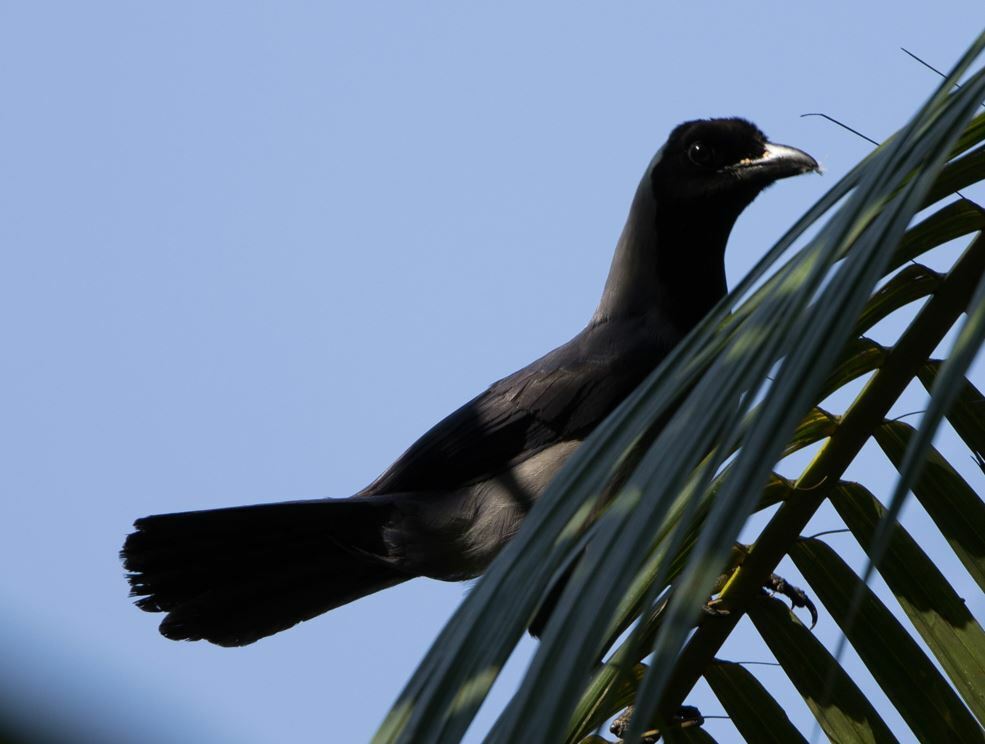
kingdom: Animalia
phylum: Chordata
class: Aves
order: Passeriformes
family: Corvidae
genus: Cyanocorax
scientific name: Cyanocorax cyanomelas
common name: Purplish jay
